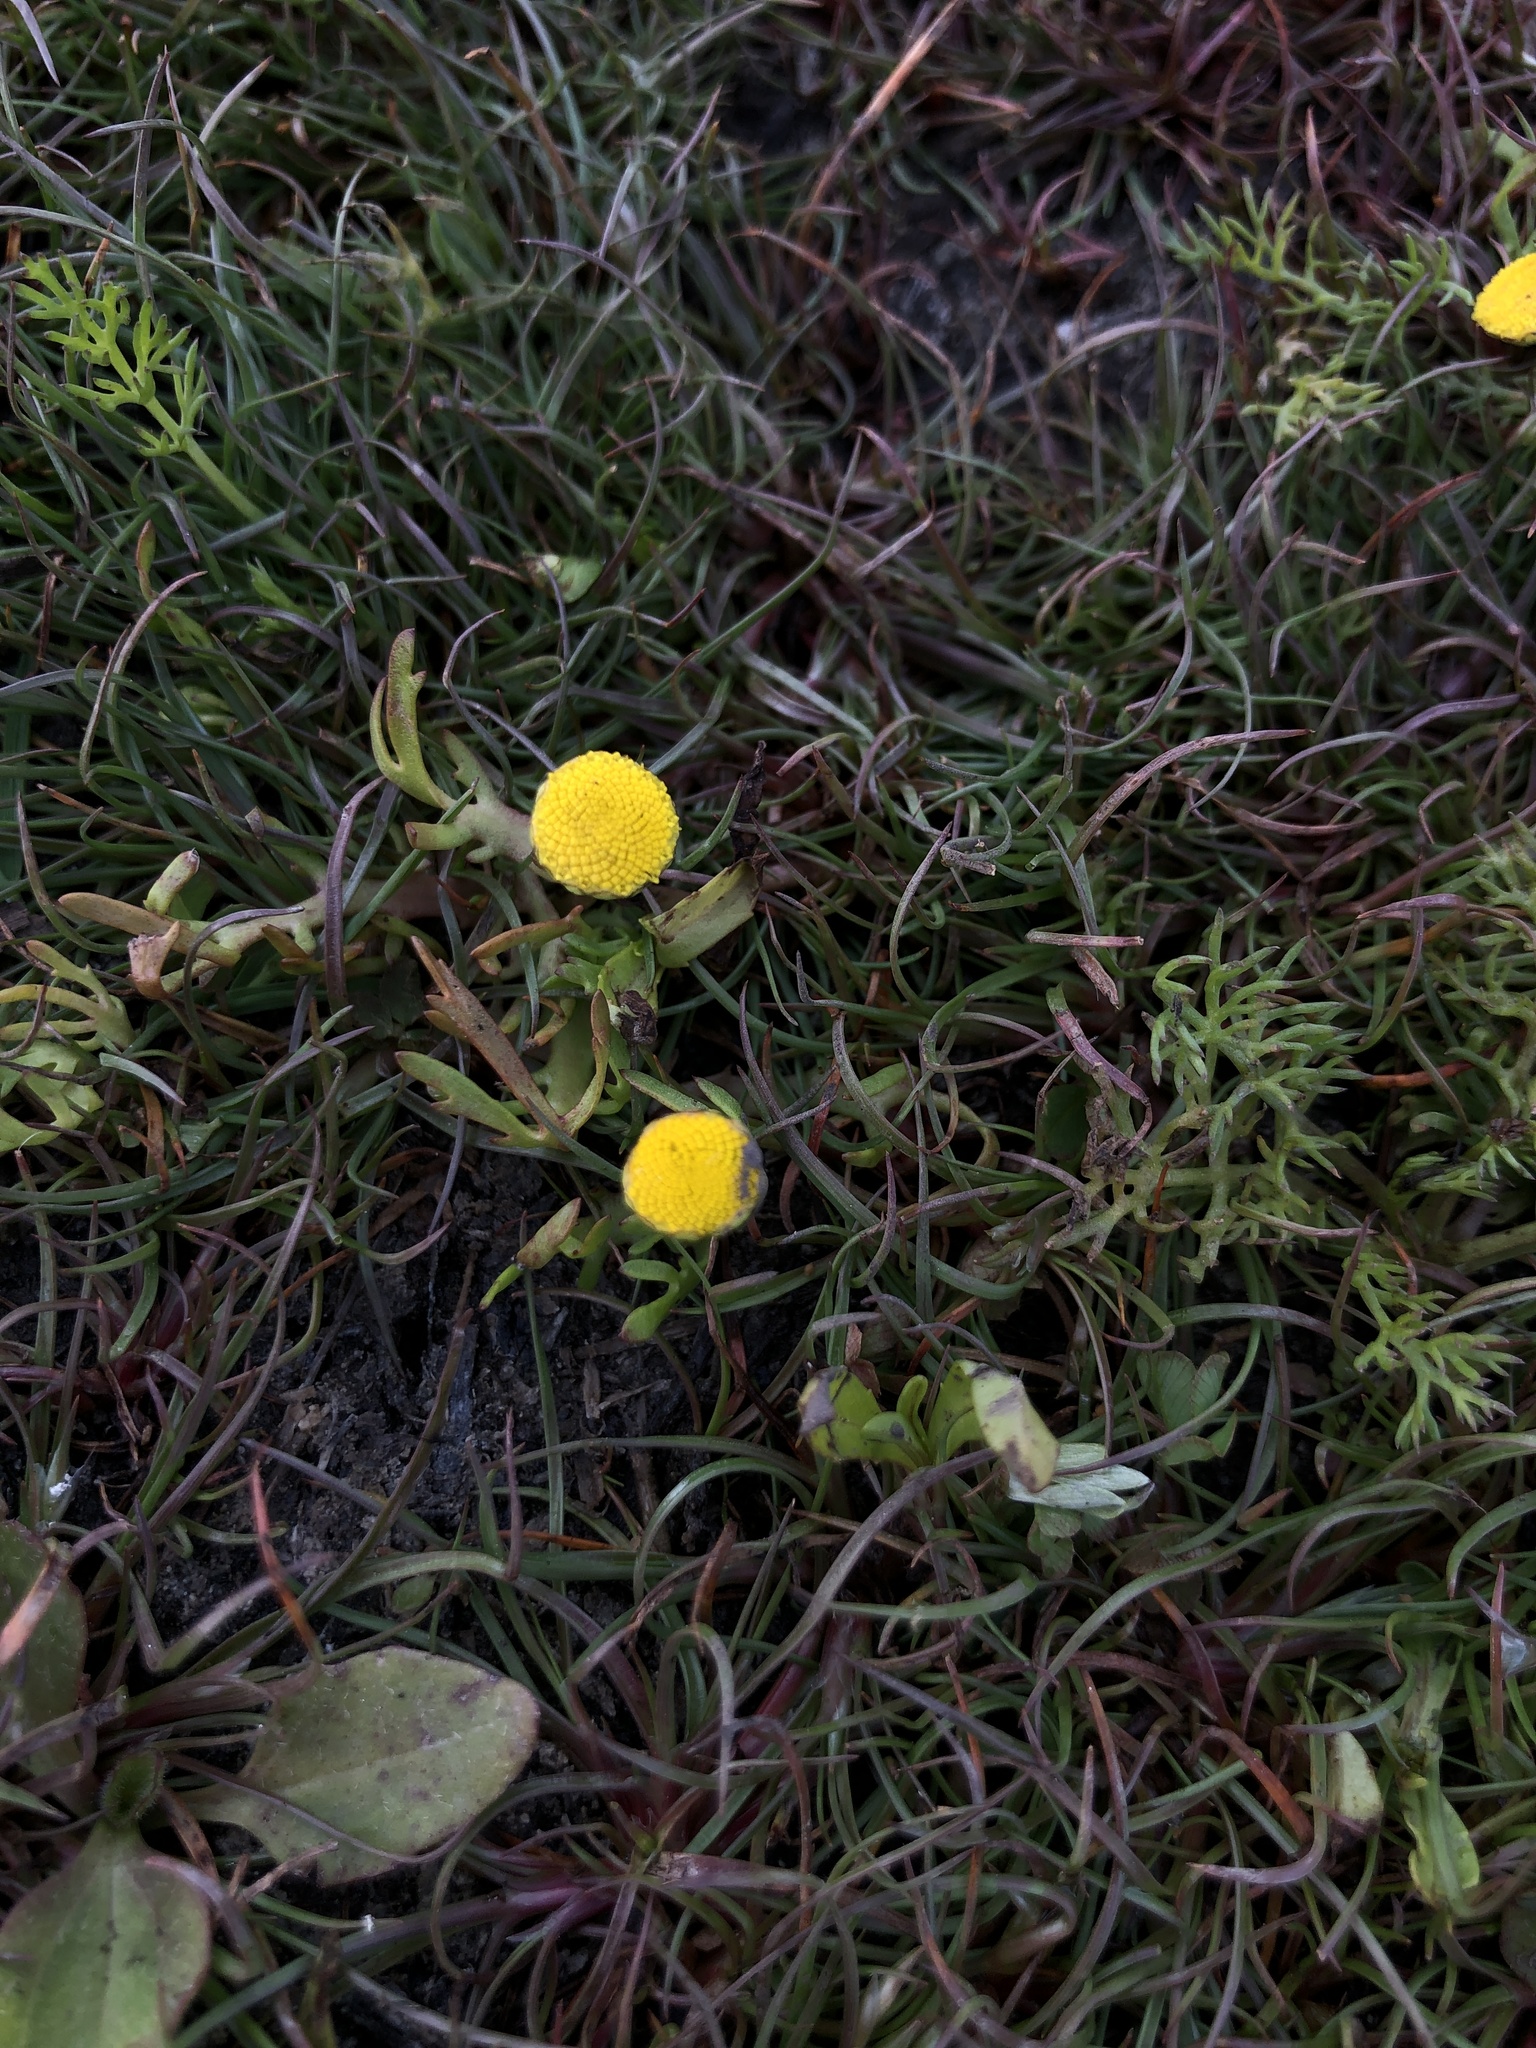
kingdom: Plantae
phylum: Tracheophyta
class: Magnoliopsida
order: Asterales
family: Asteraceae
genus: Cotula
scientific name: Cotula coronopifolia
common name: Buttonweed
